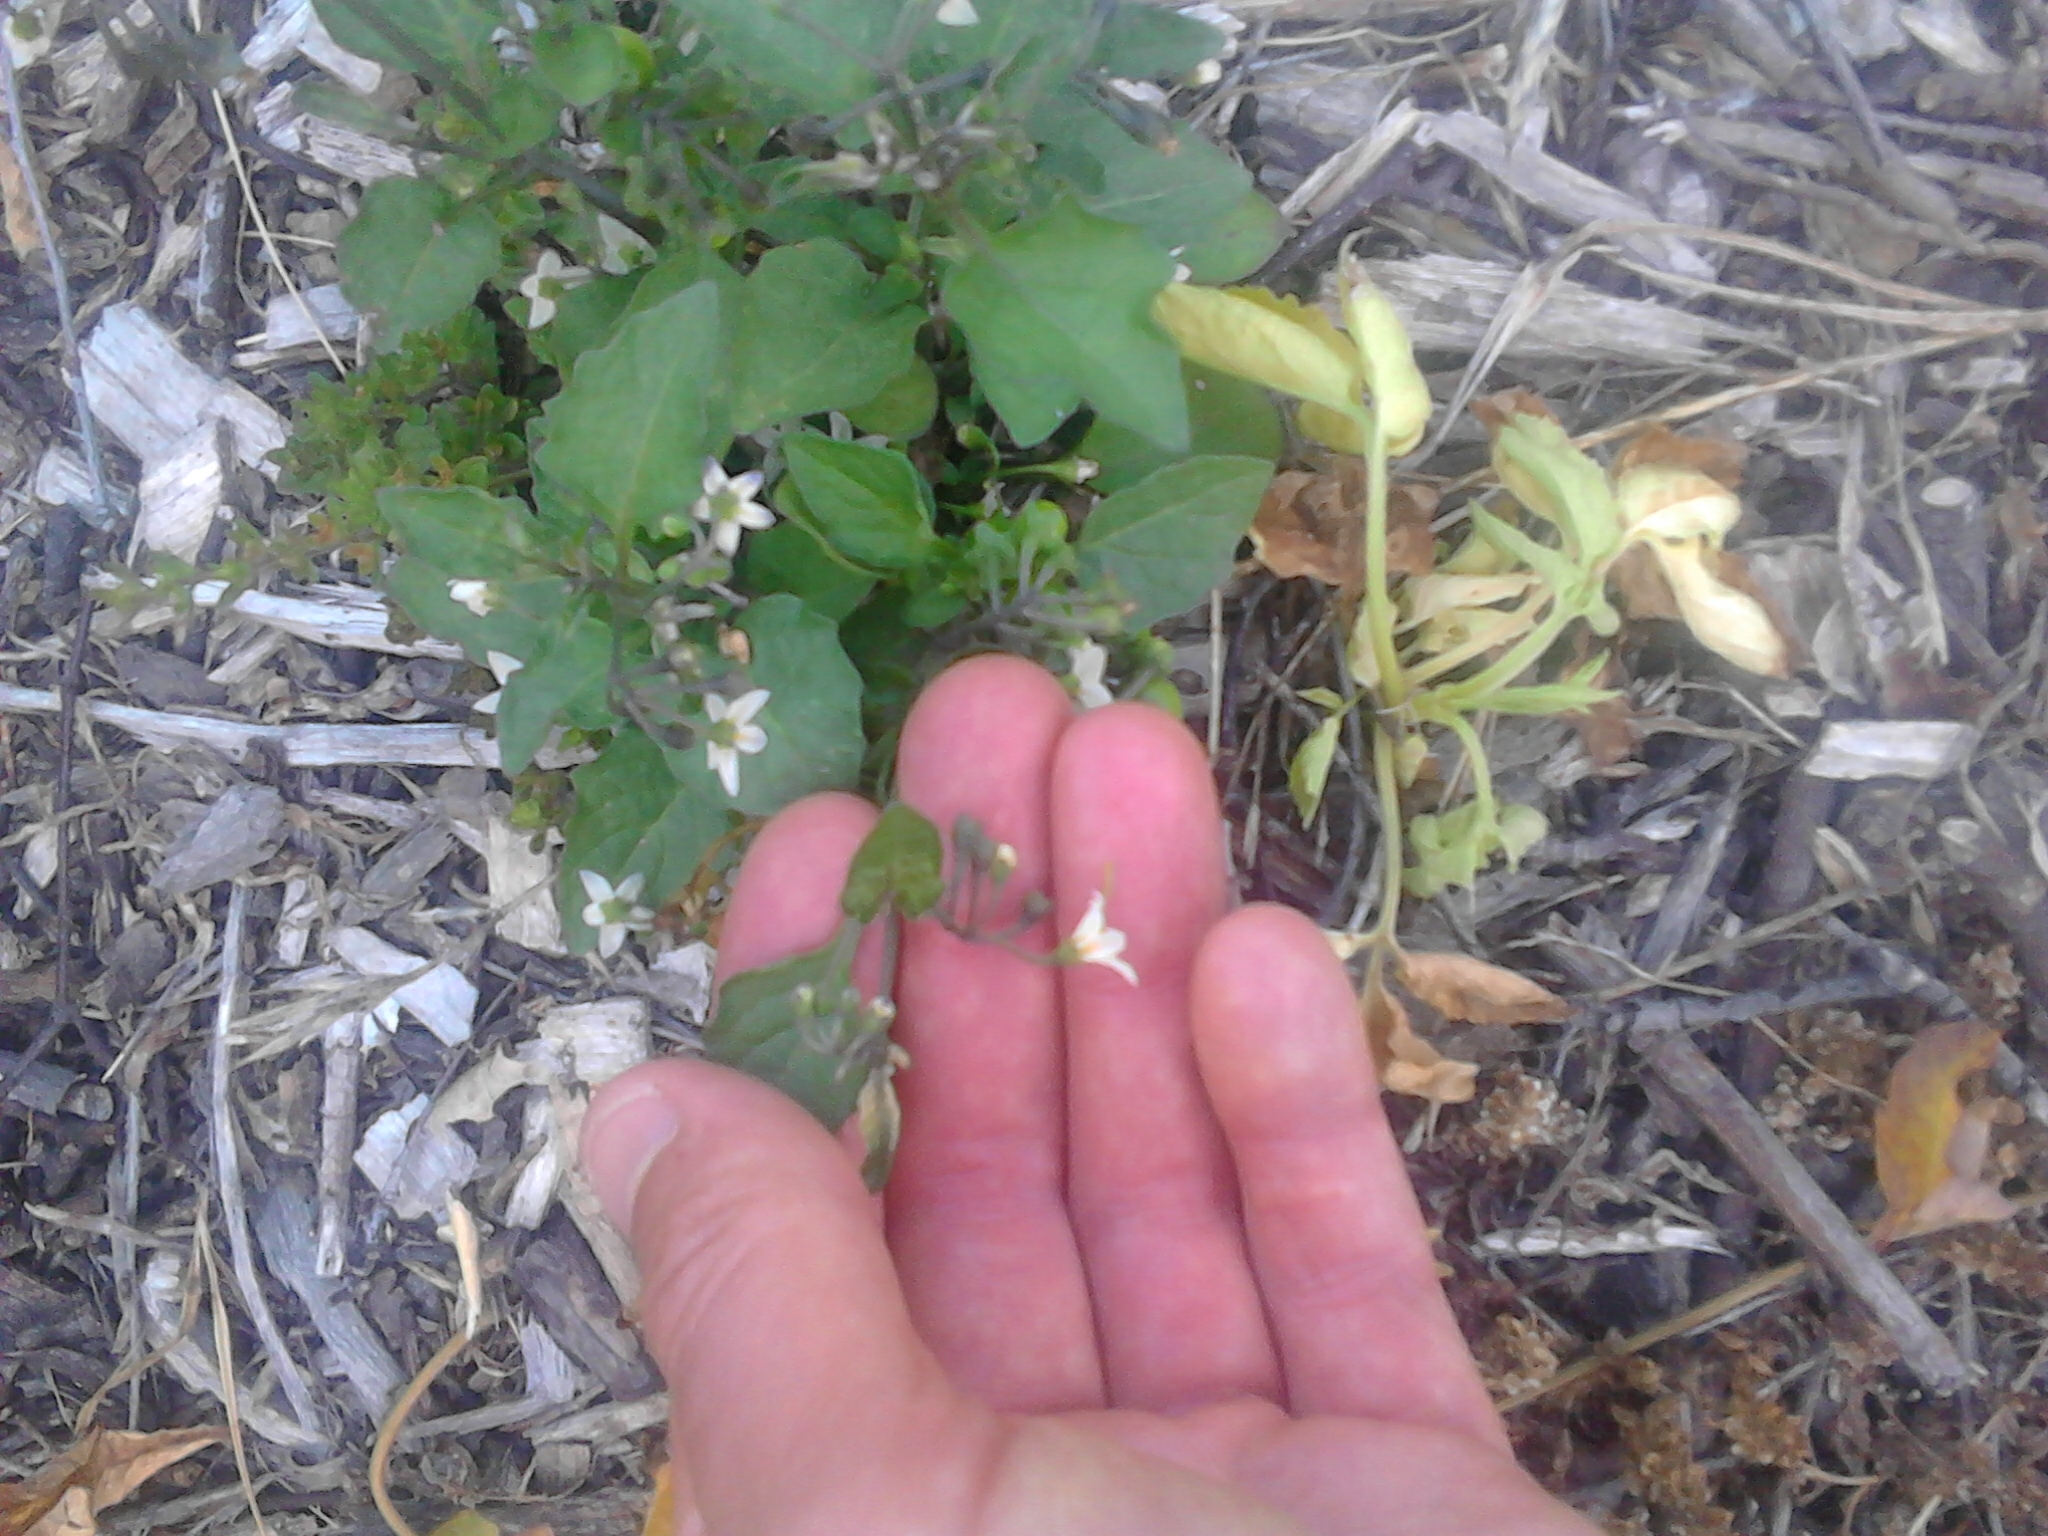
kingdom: Plantae
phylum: Tracheophyta
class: Magnoliopsida
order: Solanales
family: Solanaceae
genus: Solanum
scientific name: Solanum nigrum
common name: Black nightshade
